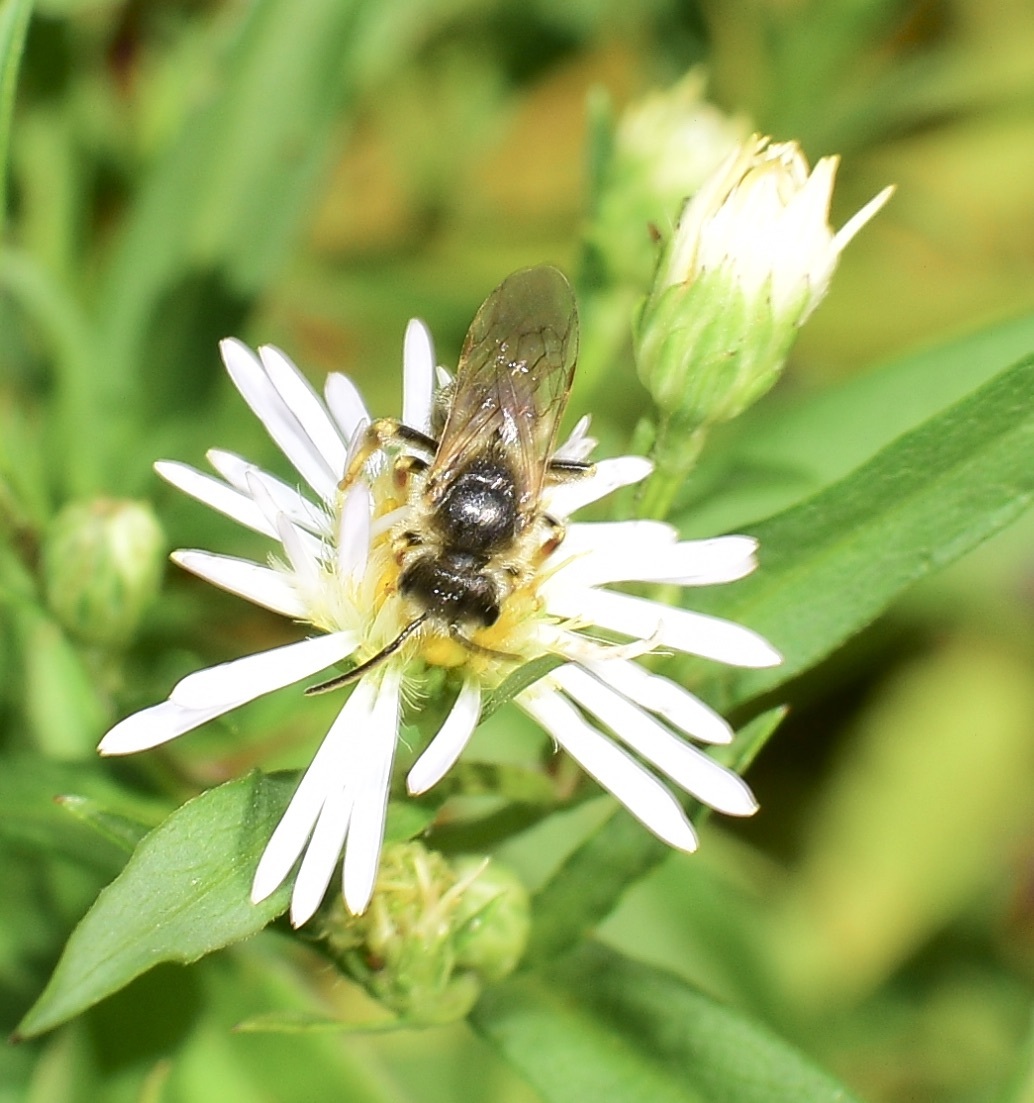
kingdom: Animalia
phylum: Arthropoda
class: Insecta
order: Hymenoptera
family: Halictidae
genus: Halictus
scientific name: Halictus ligatus
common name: Ligated furrow bee
